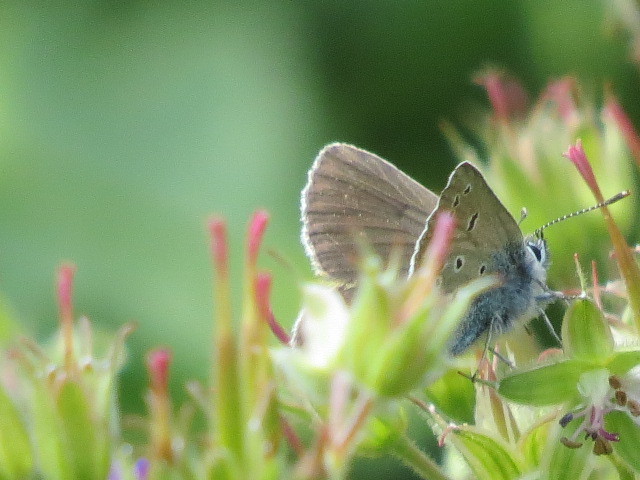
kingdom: Animalia
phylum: Arthropoda
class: Insecta
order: Lepidoptera
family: Lycaenidae
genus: Eumedonia
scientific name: Eumedonia eumedon
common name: Geranium argus
